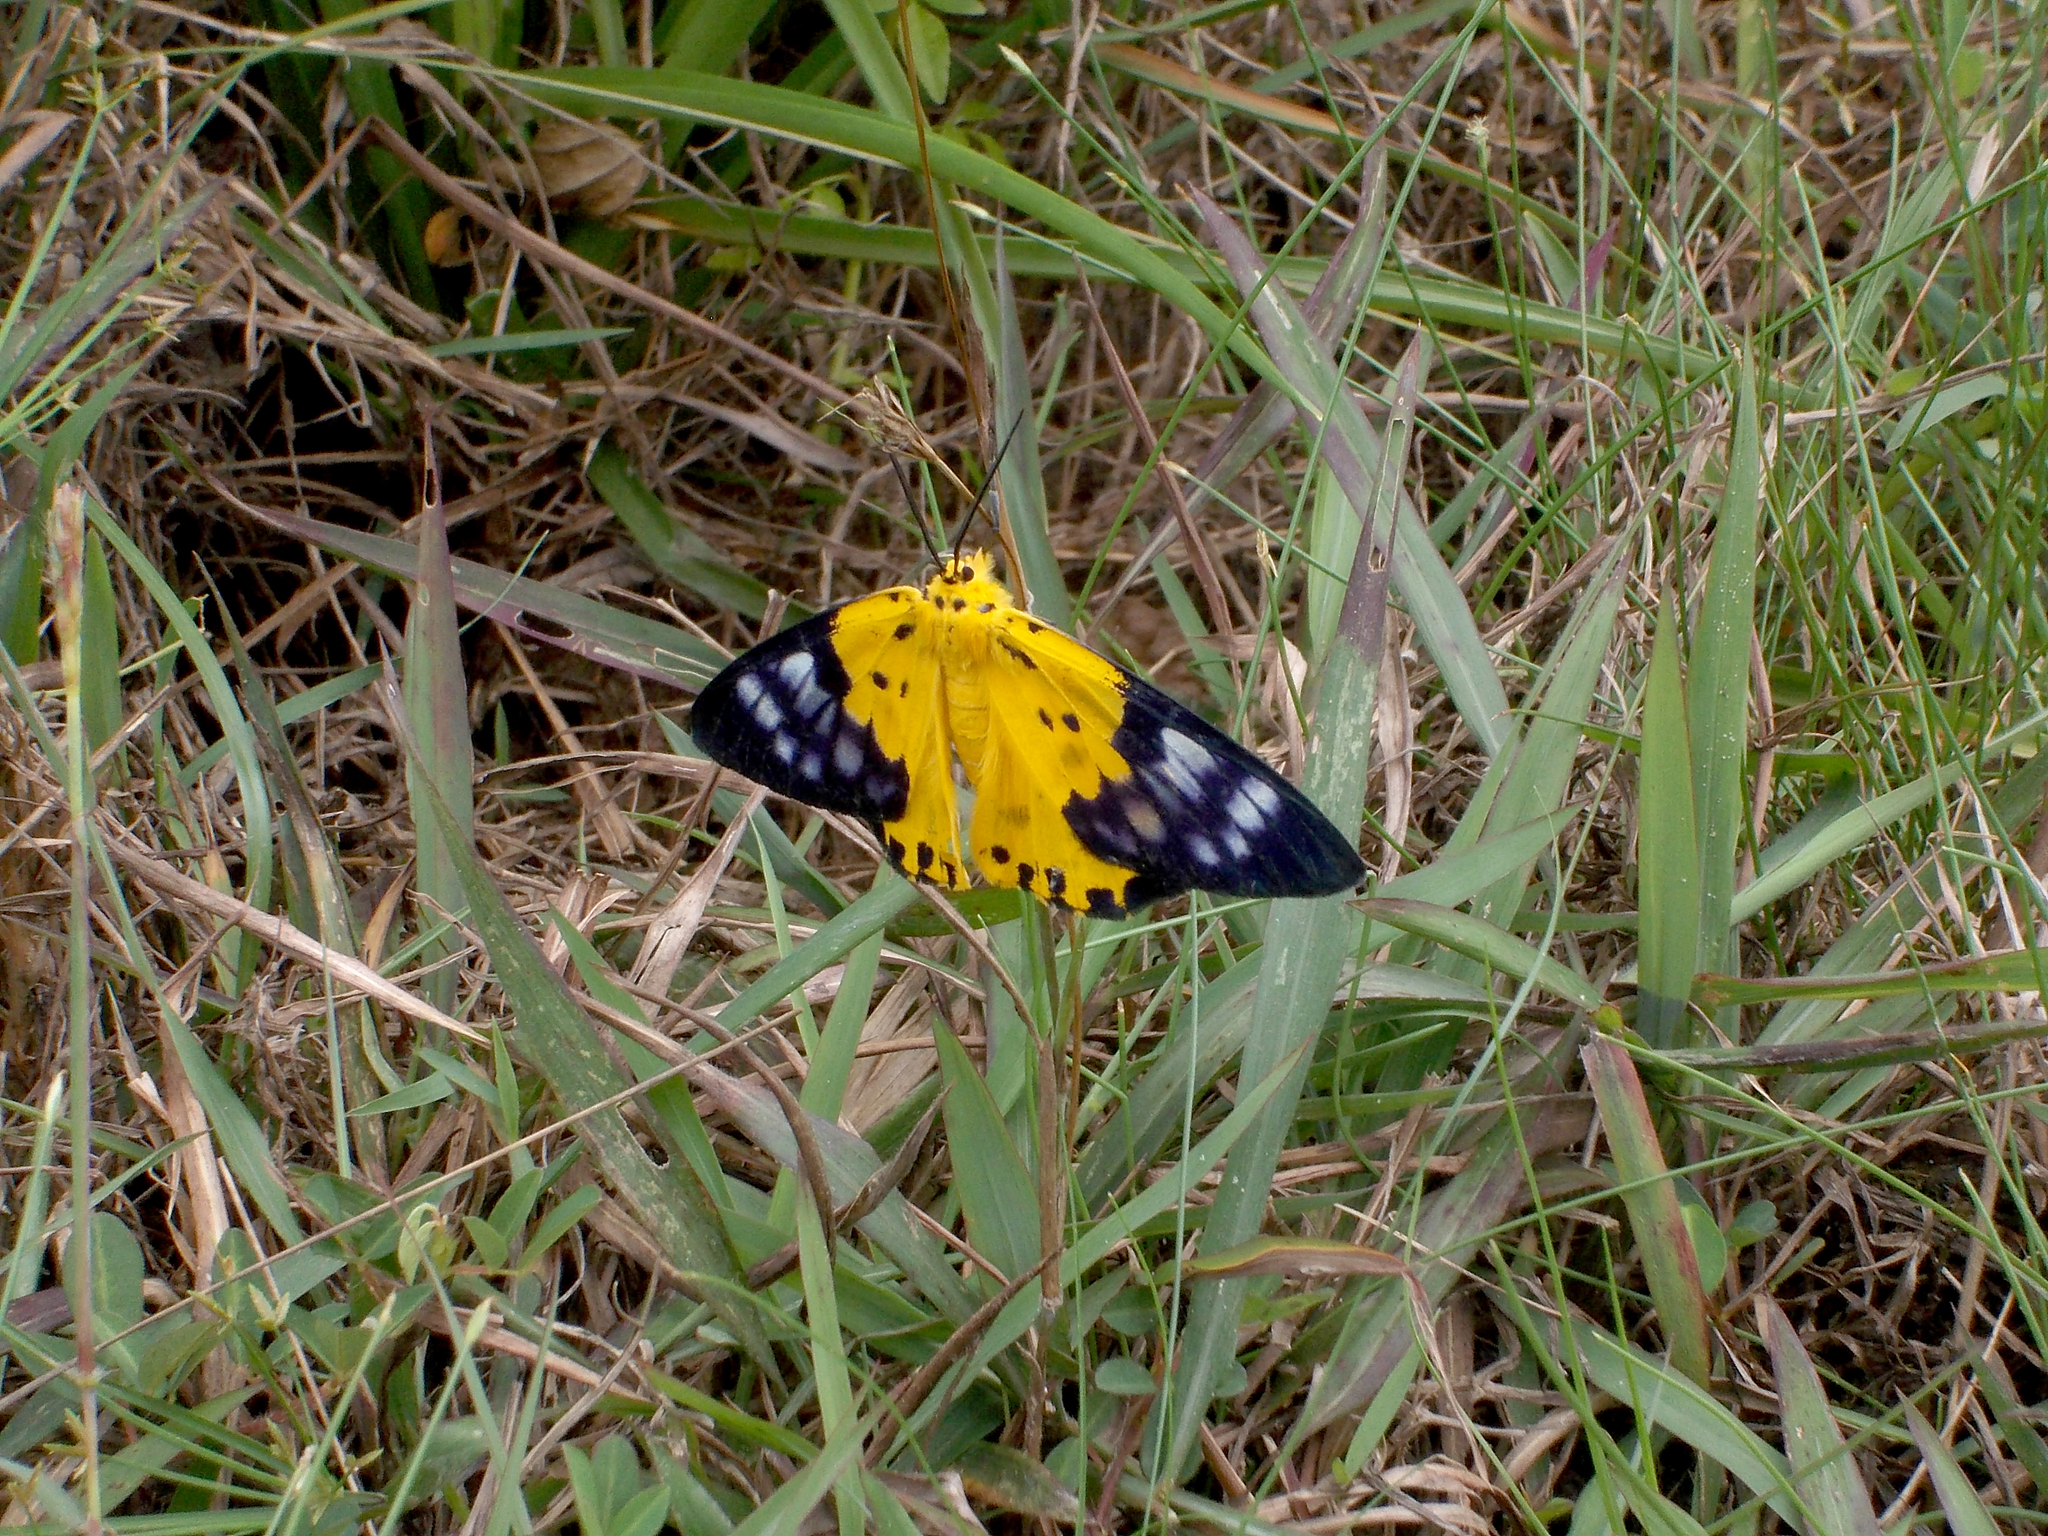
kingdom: Animalia
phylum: Arthropoda
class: Insecta
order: Lepidoptera
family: Geometridae
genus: Dysphania
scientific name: Dysphania sagana
